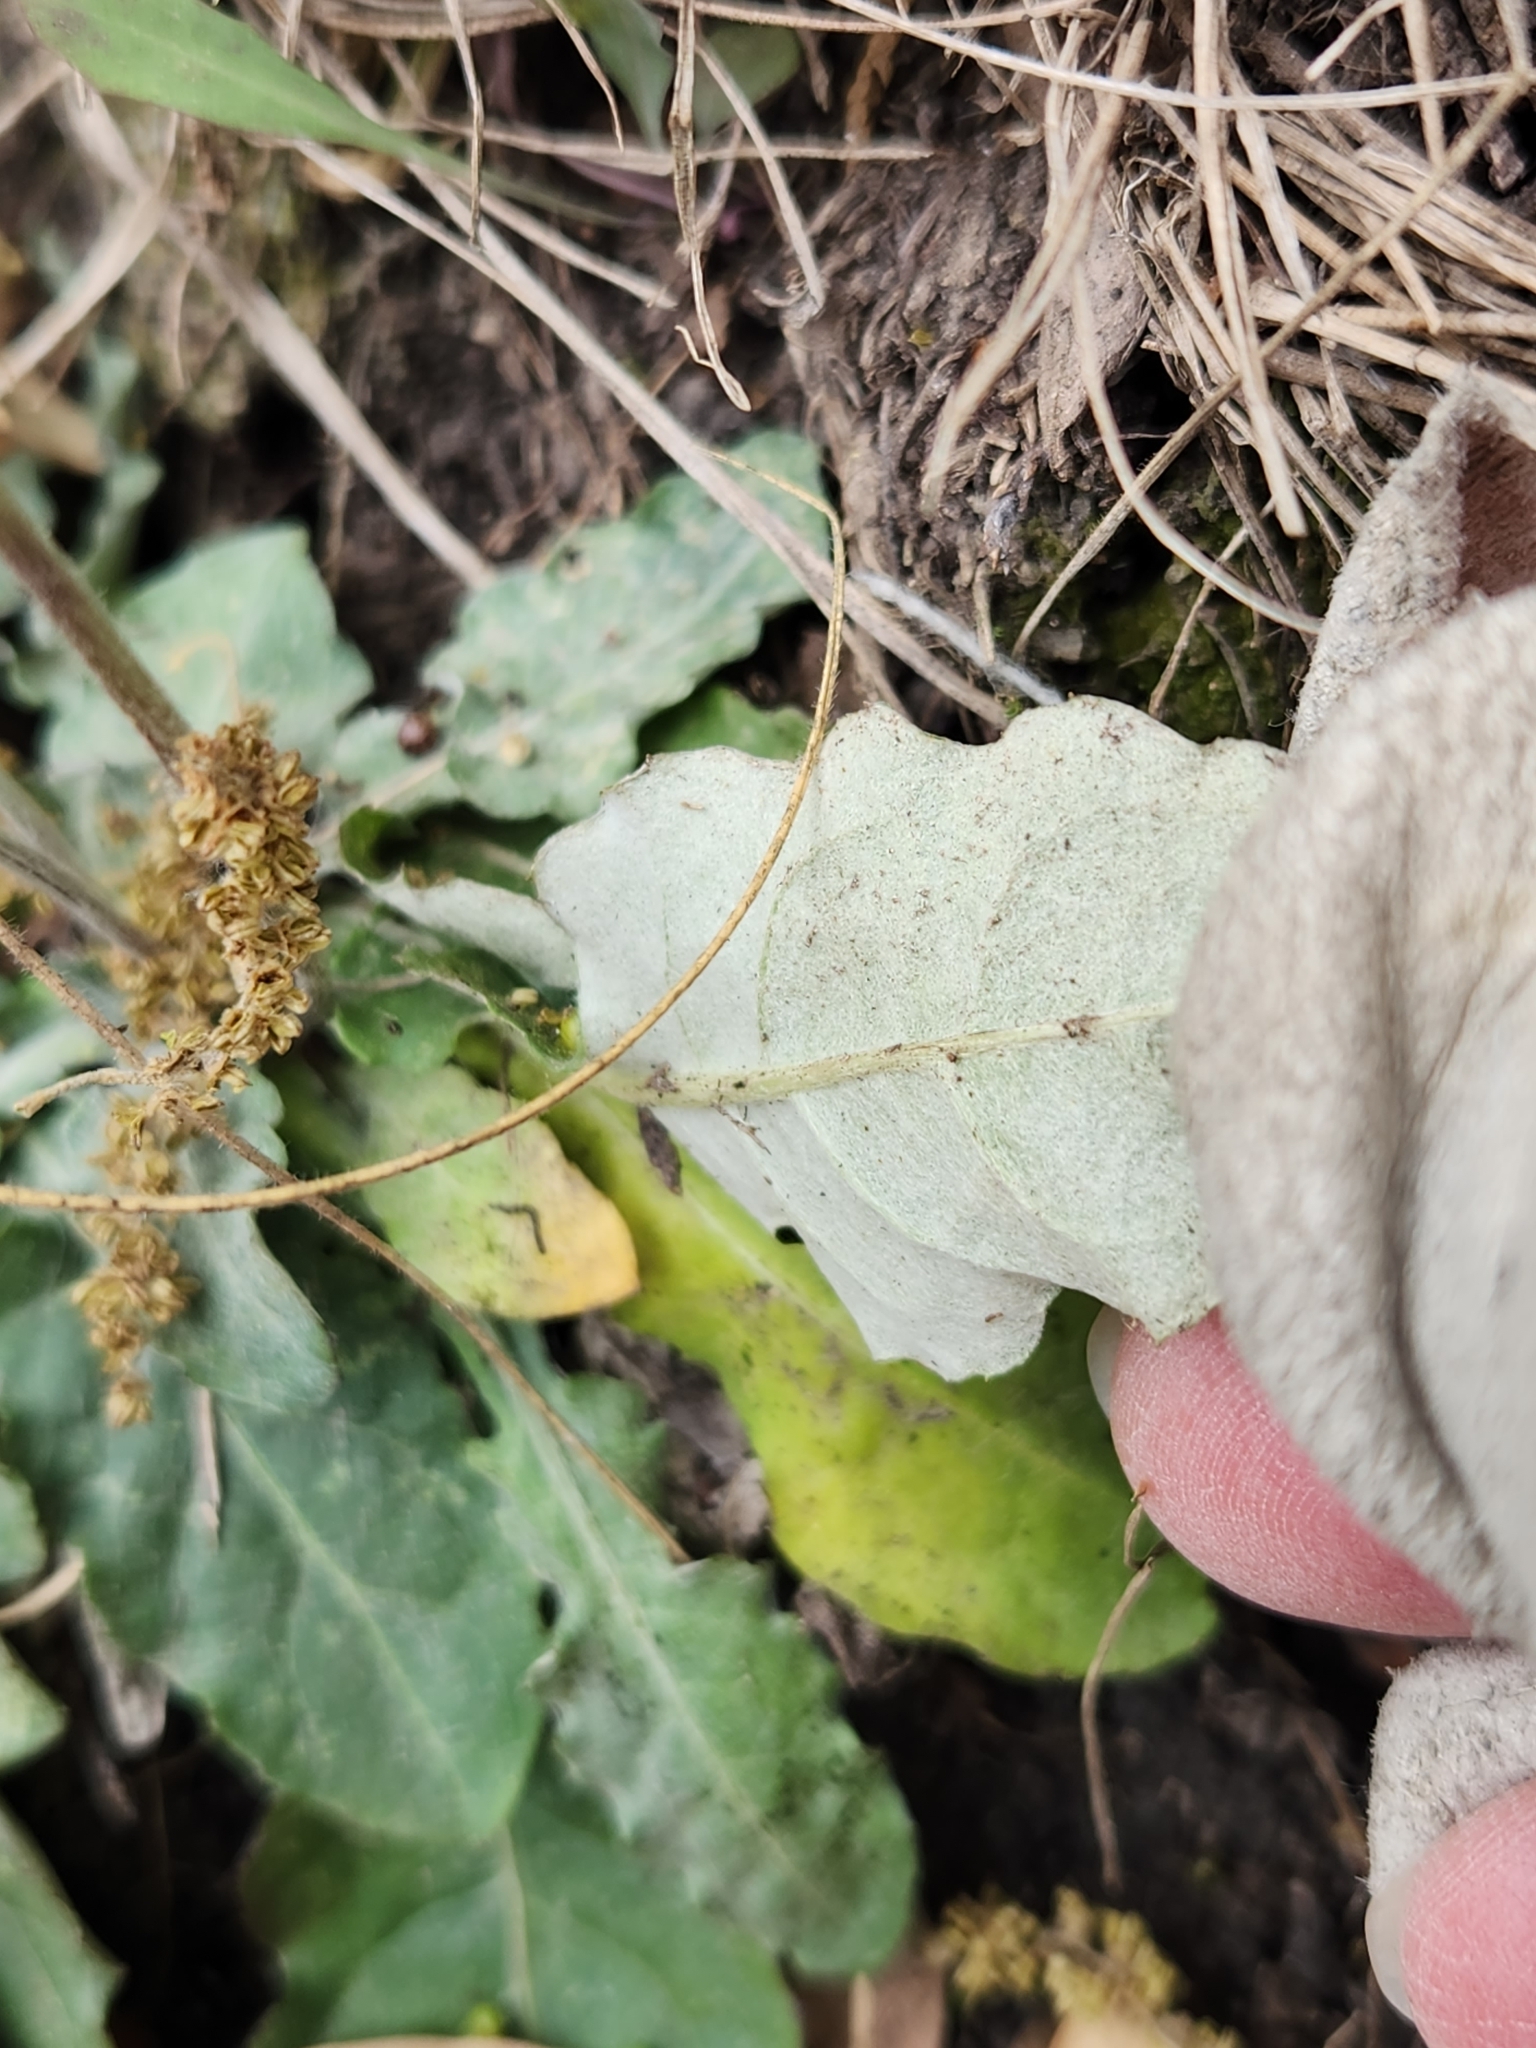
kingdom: Plantae
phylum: Tracheophyta
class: Magnoliopsida
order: Asterales
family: Asteraceae
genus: Chaptalia
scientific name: Chaptalia texana
